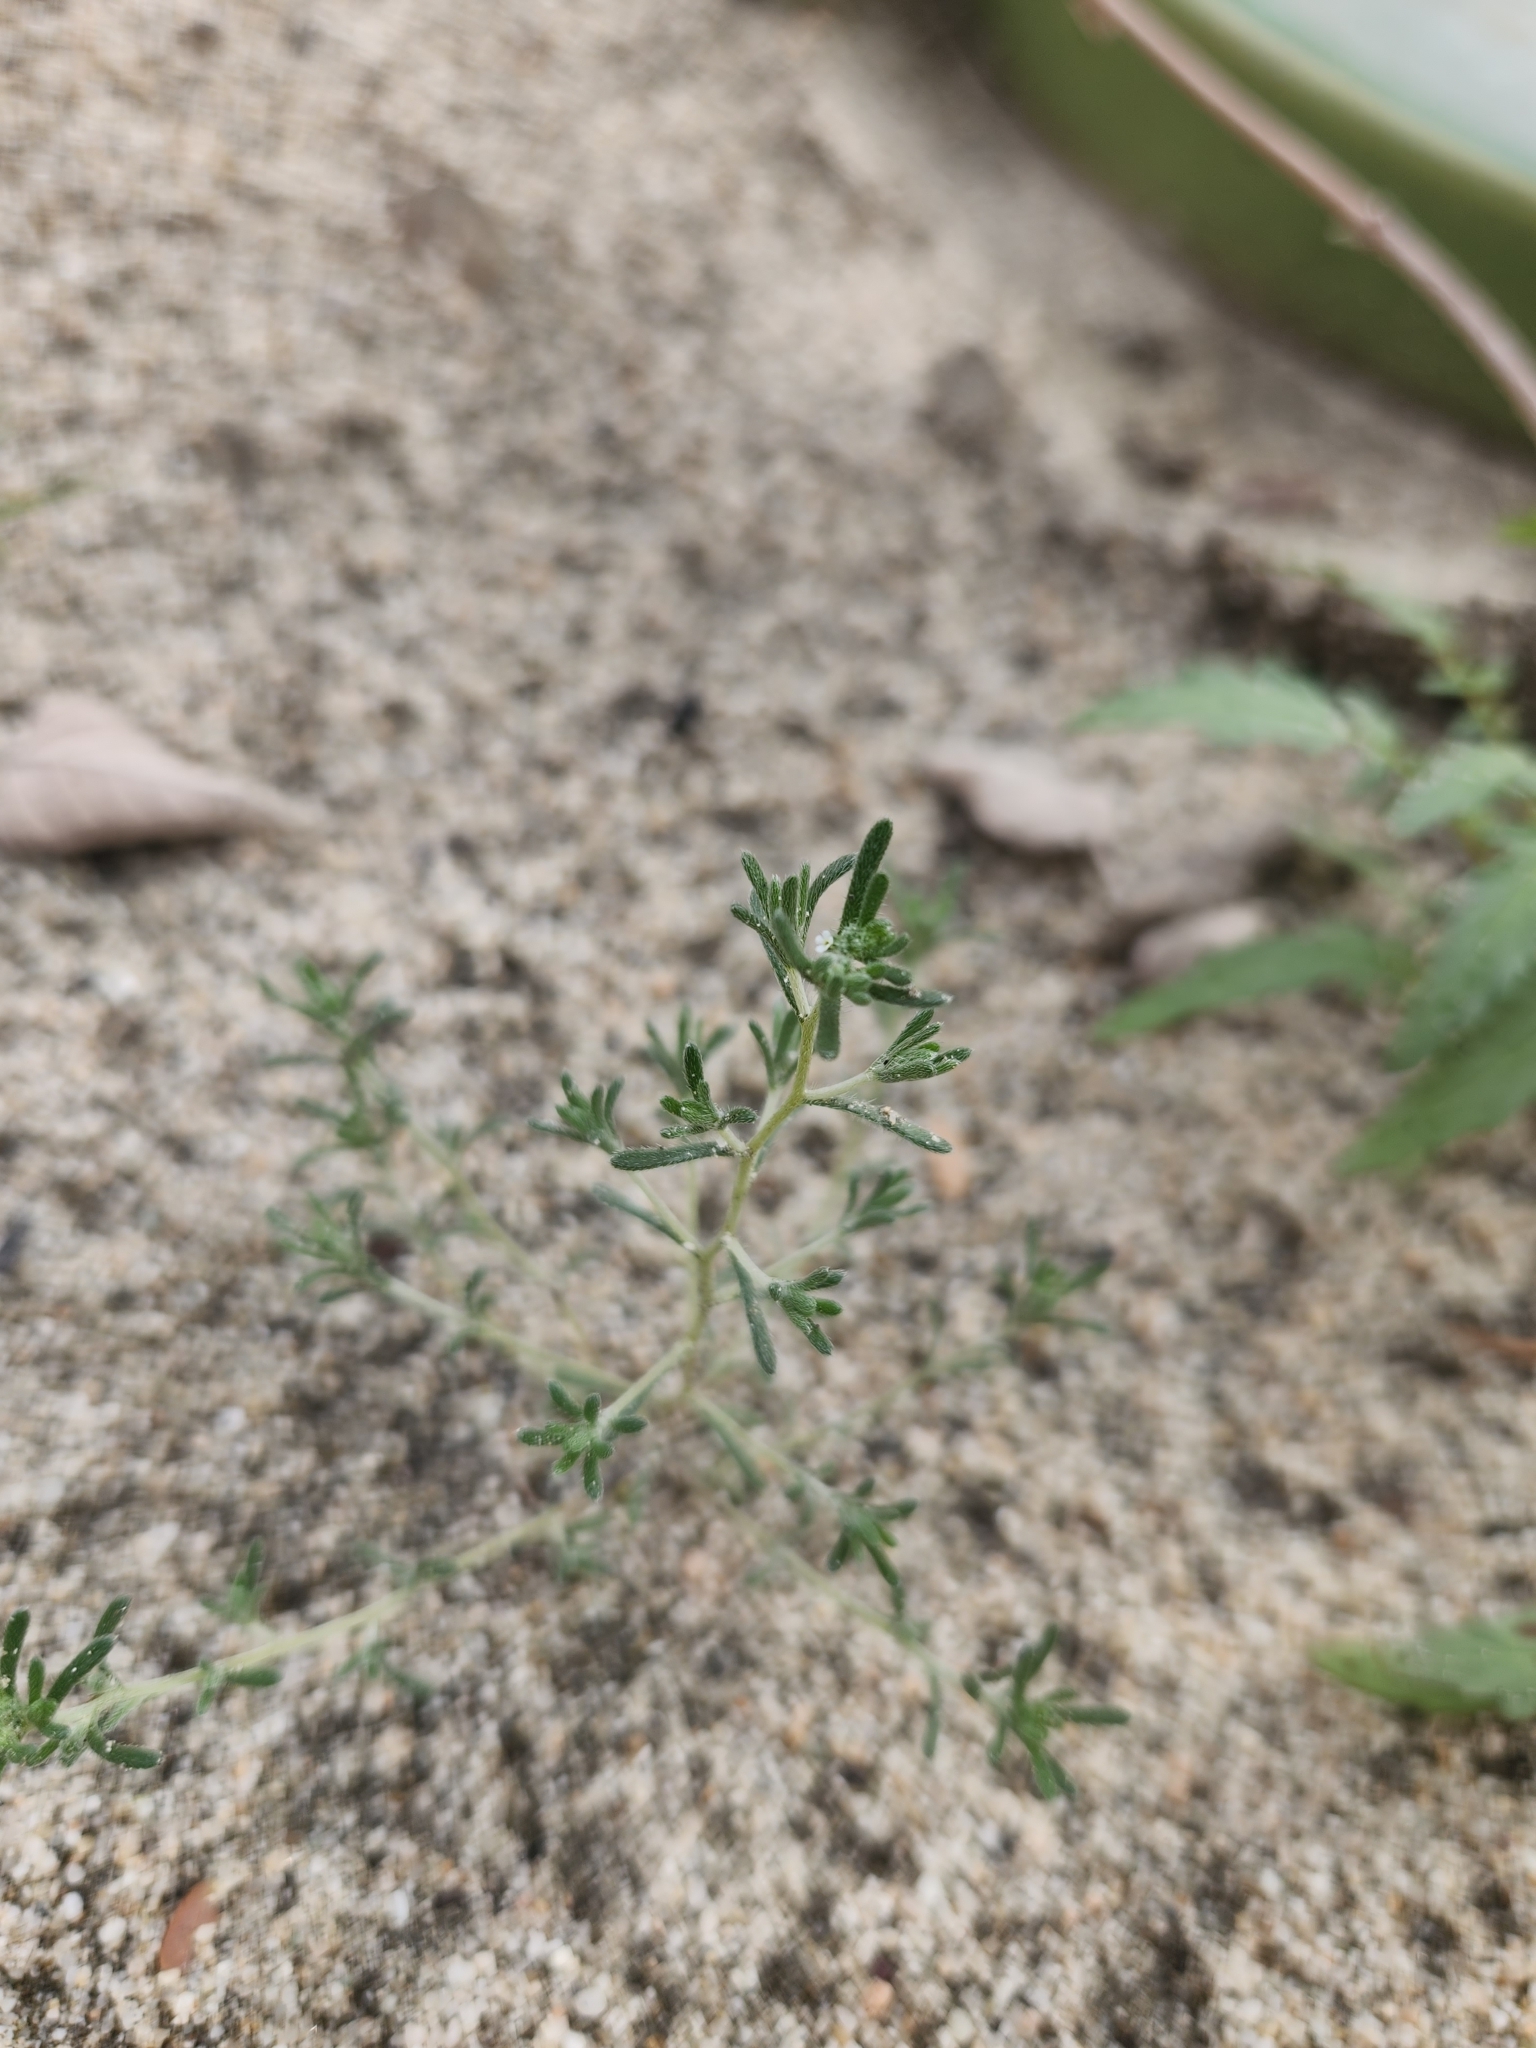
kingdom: Plantae
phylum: Tracheophyta
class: Magnoliopsida
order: Boraginales
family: Boraginaceae
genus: Eremocarya
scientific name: Eremocarya micrantha
